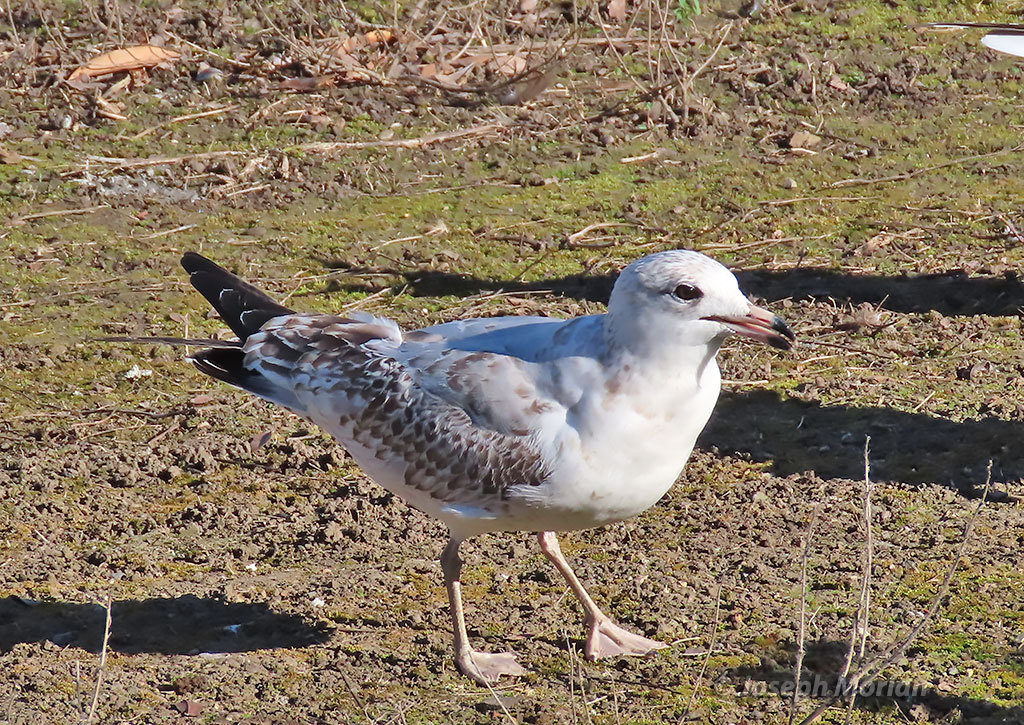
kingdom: Animalia
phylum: Chordata
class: Aves
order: Charadriiformes
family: Laridae
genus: Larus
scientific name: Larus delawarensis
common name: Ring-billed gull
